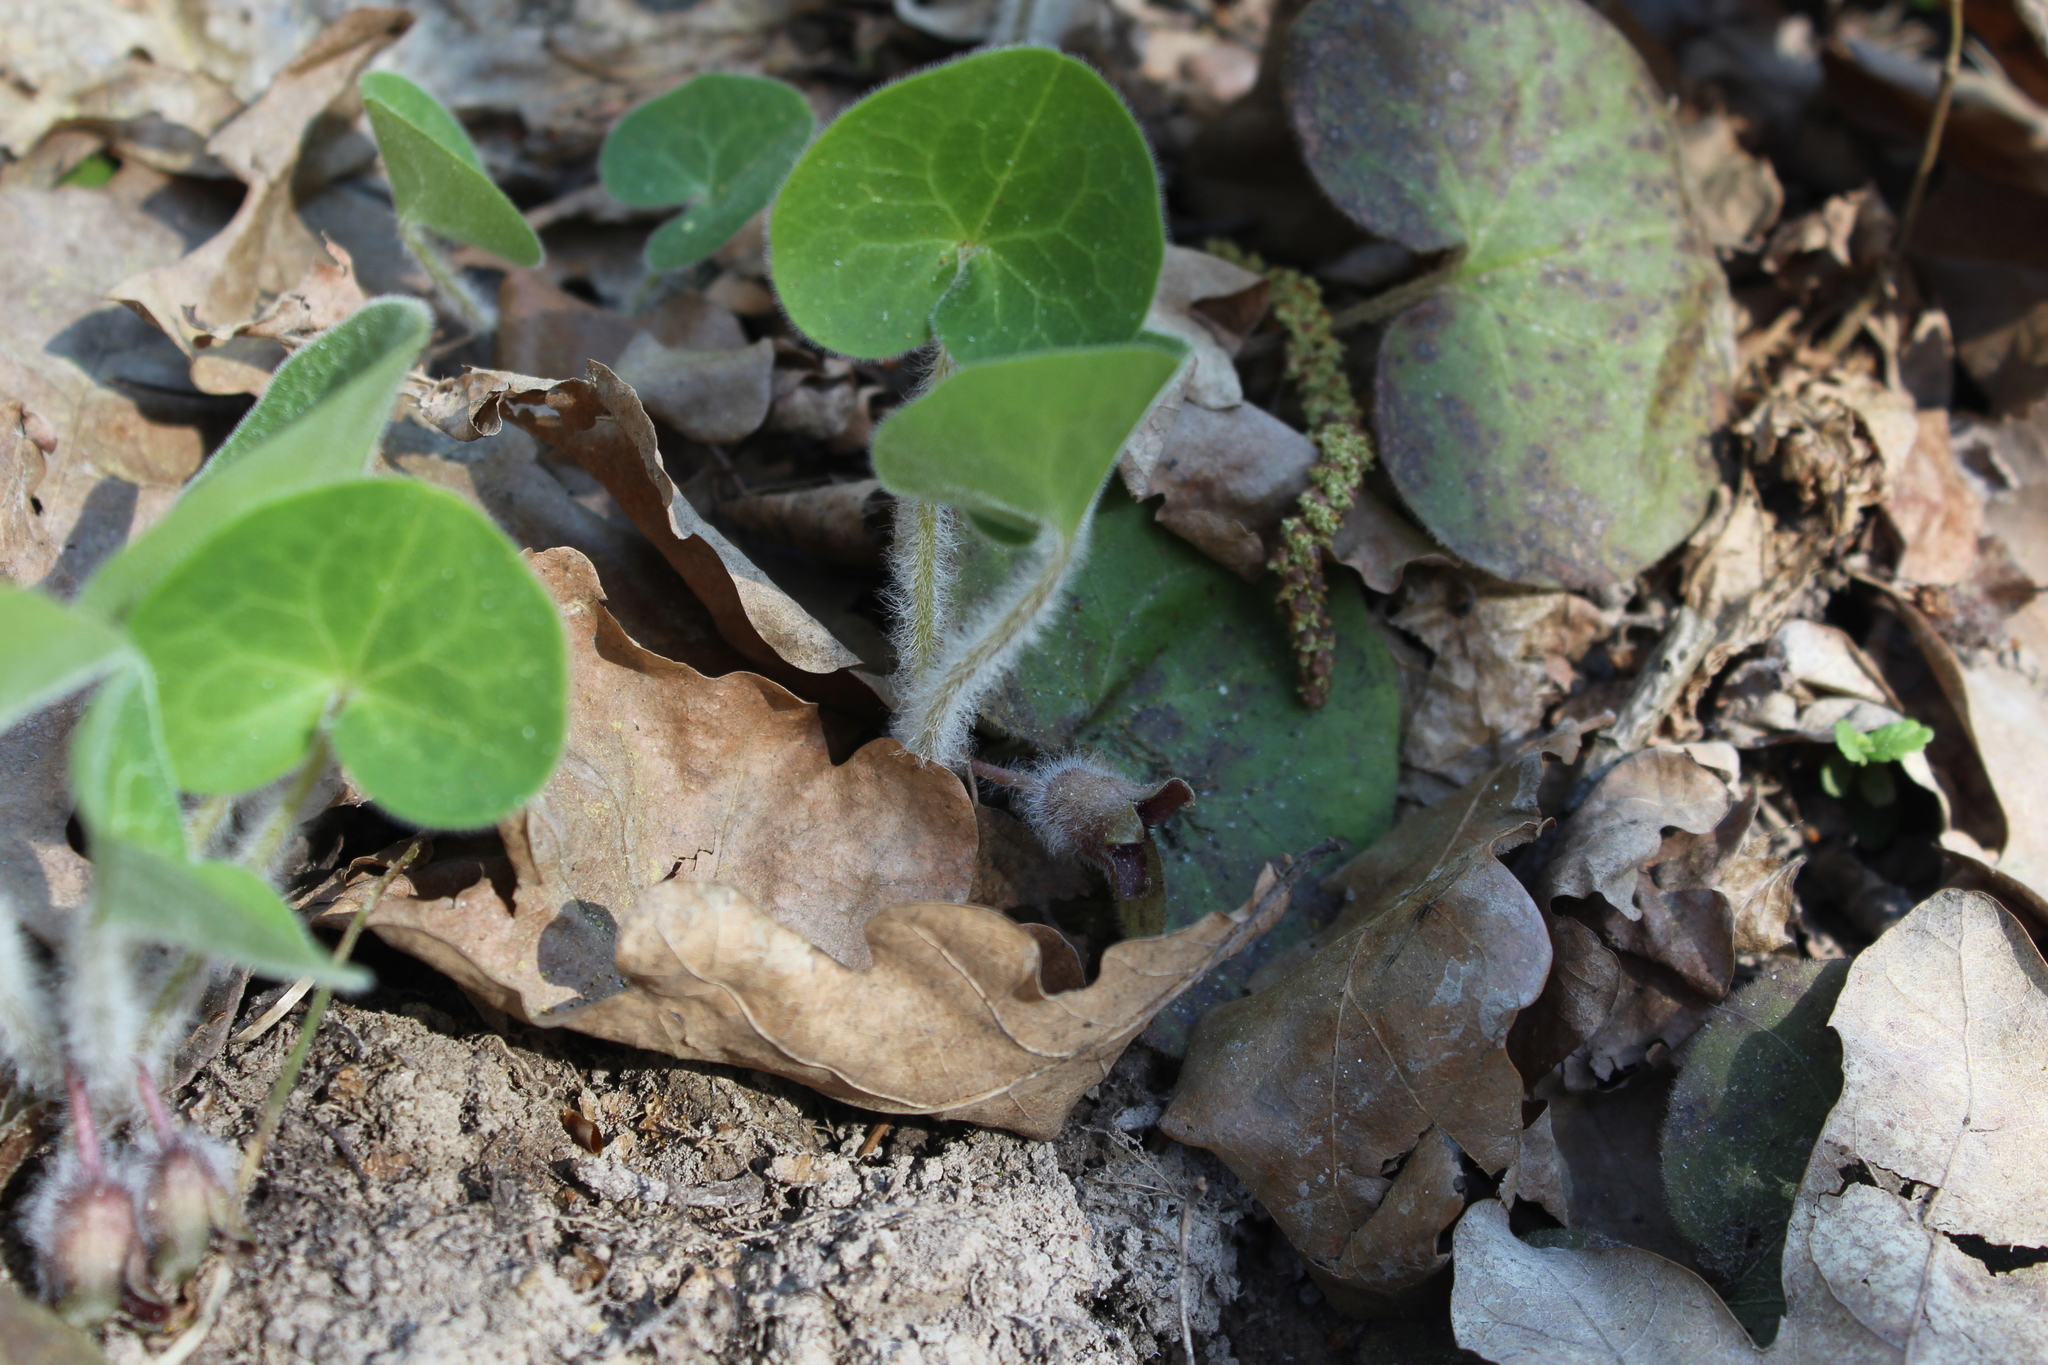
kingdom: Plantae
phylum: Tracheophyta
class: Magnoliopsida
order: Piperales
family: Aristolochiaceae
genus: Asarum
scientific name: Asarum europaeum
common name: Asarabacca
